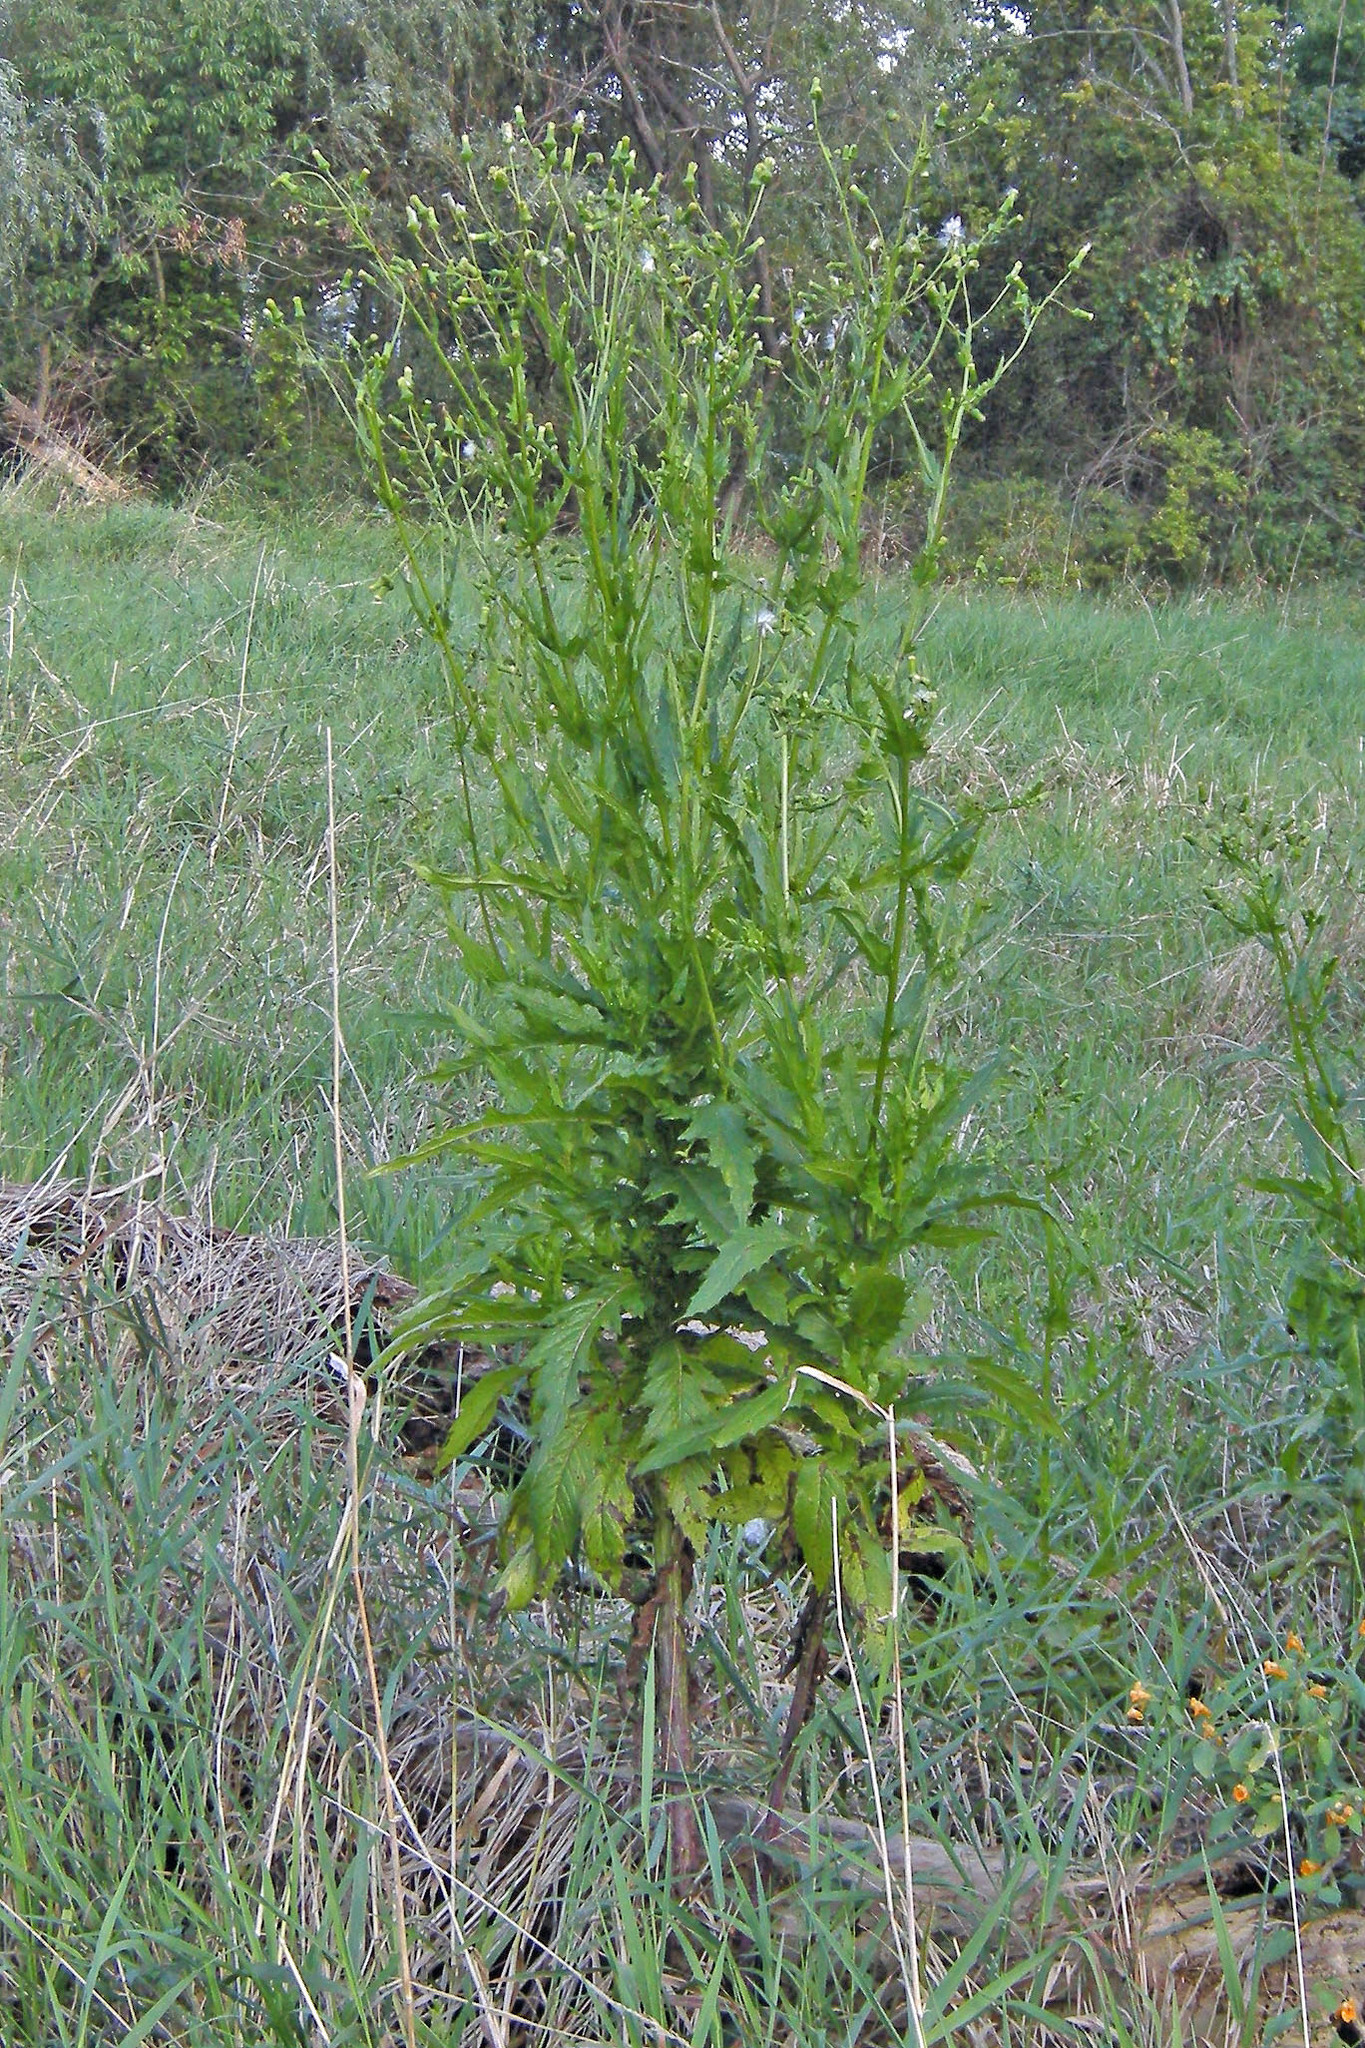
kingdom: Plantae
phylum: Tracheophyta
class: Magnoliopsida
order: Asterales
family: Asteraceae
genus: Erechtites
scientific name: Erechtites hieraciifolius
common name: American burnweed
